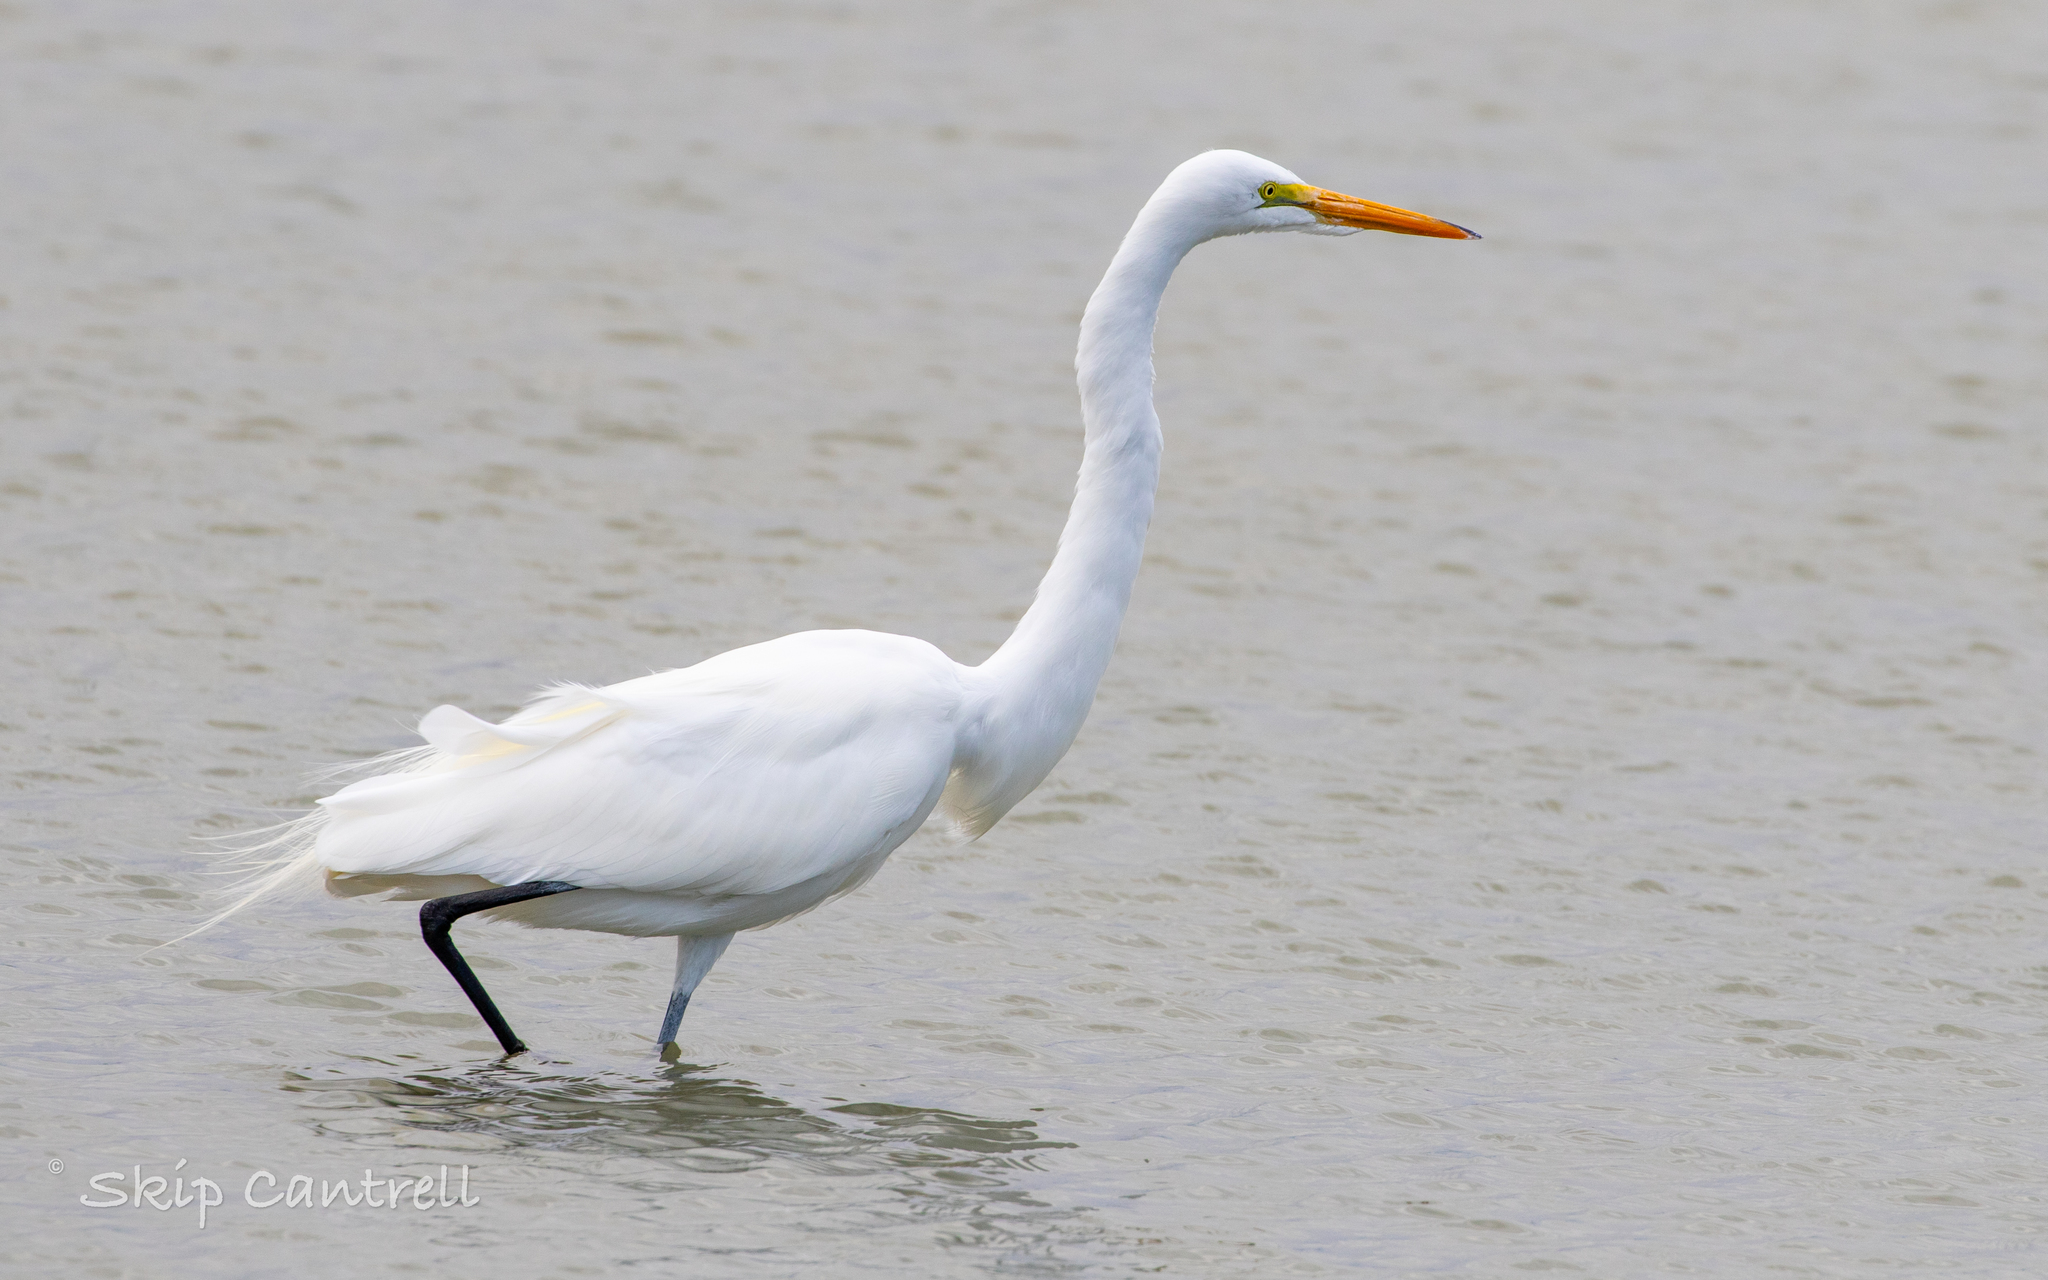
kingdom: Animalia
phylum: Chordata
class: Aves
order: Pelecaniformes
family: Ardeidae
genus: Ardea
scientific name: Ardea alba
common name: Great egret
